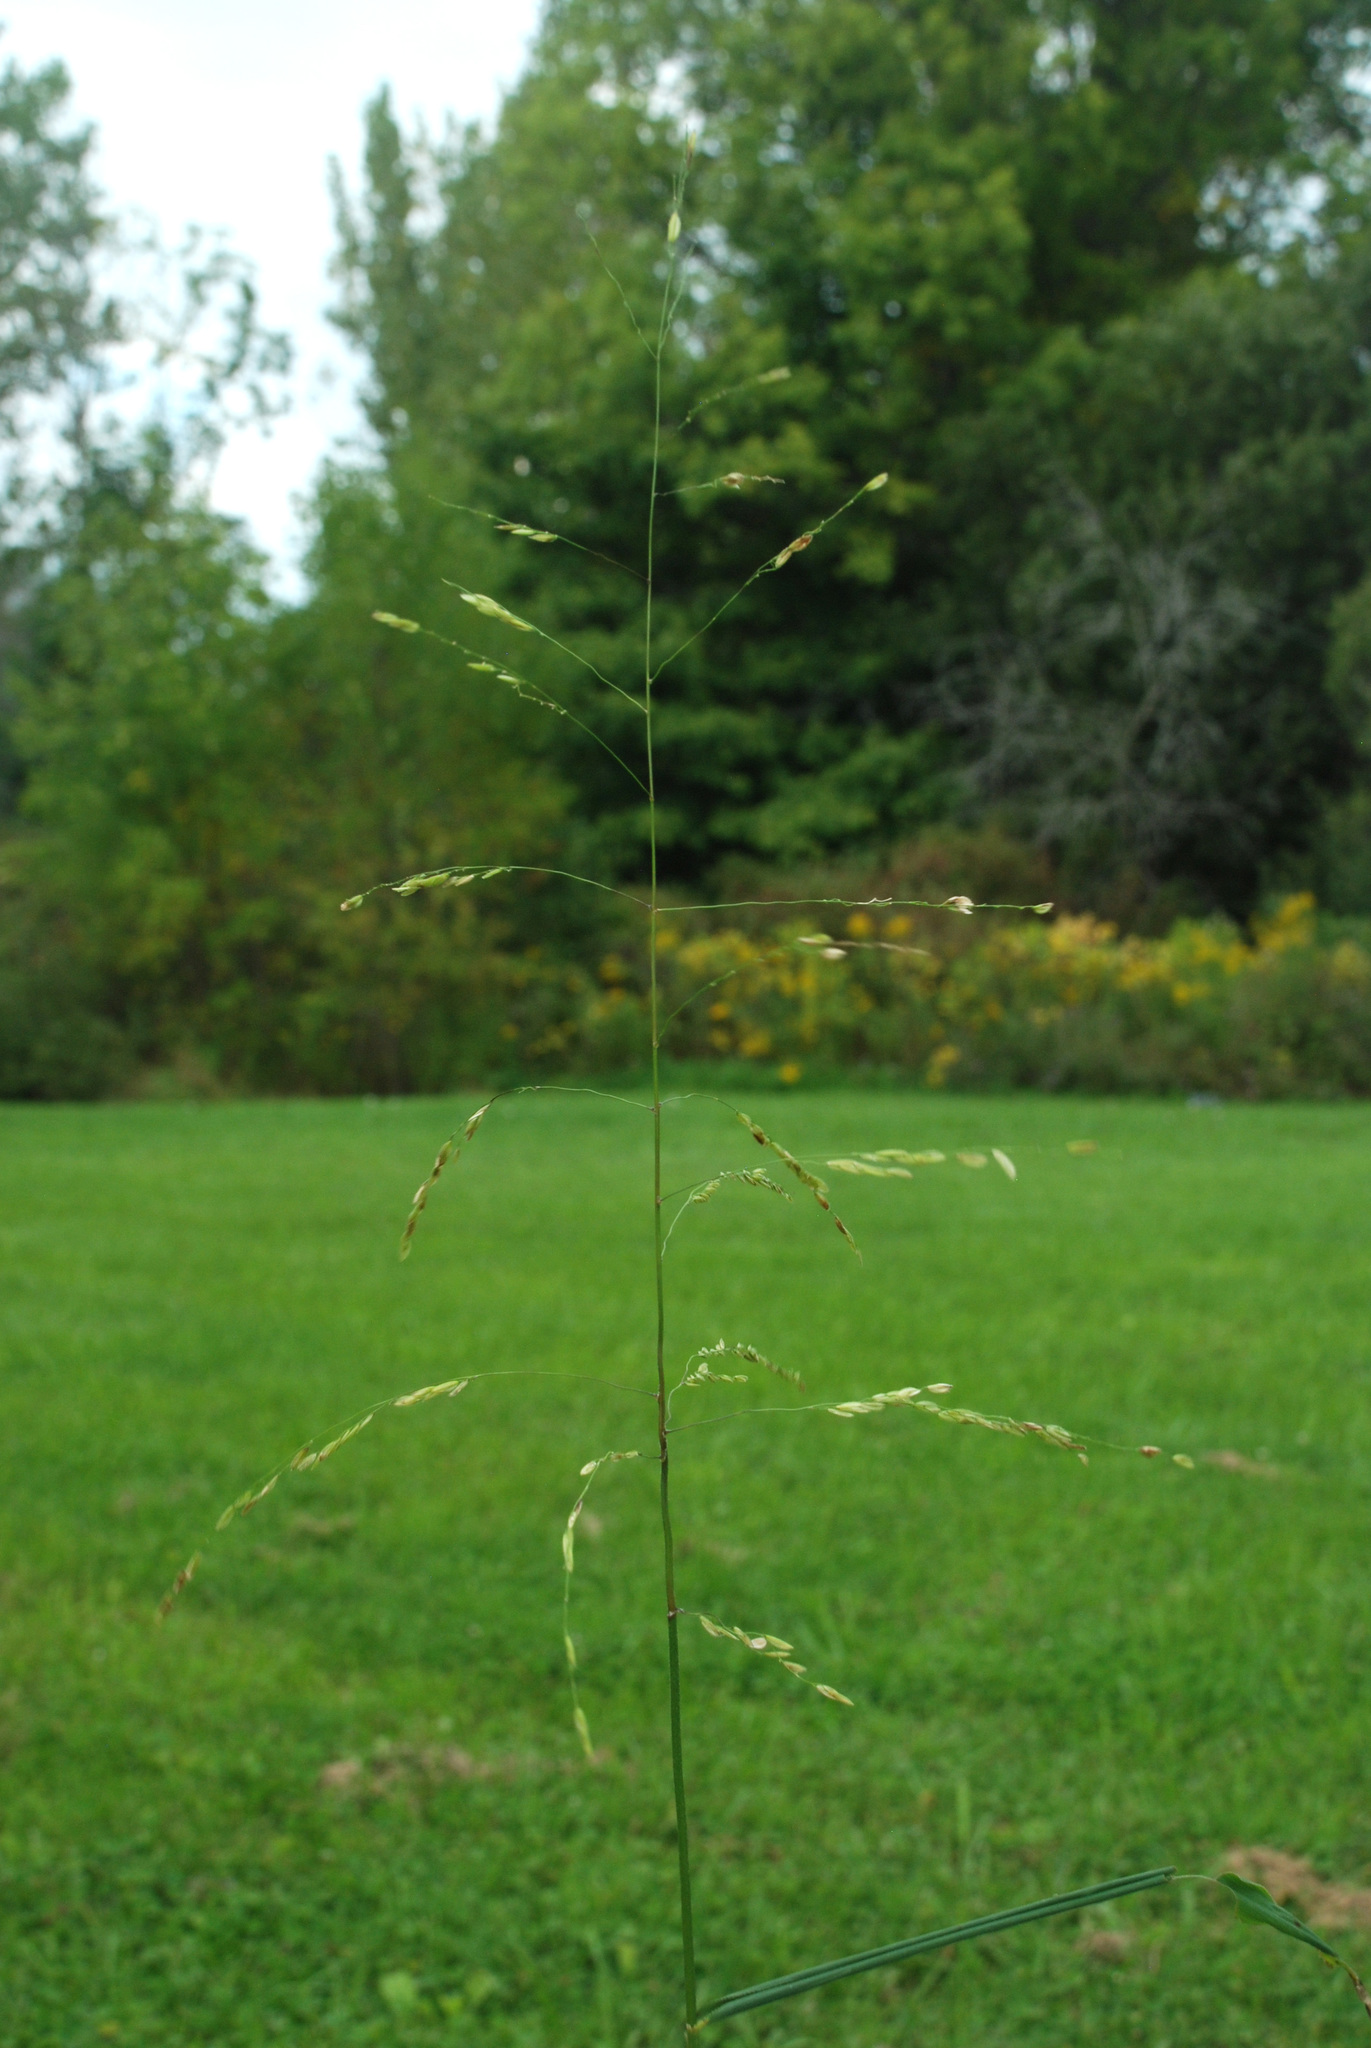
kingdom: Plantae
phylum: Tracheophyta
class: Liliopsida
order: Poales
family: Poaceae
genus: Leersia
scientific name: Leersia oryzoides
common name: Cut-grass
